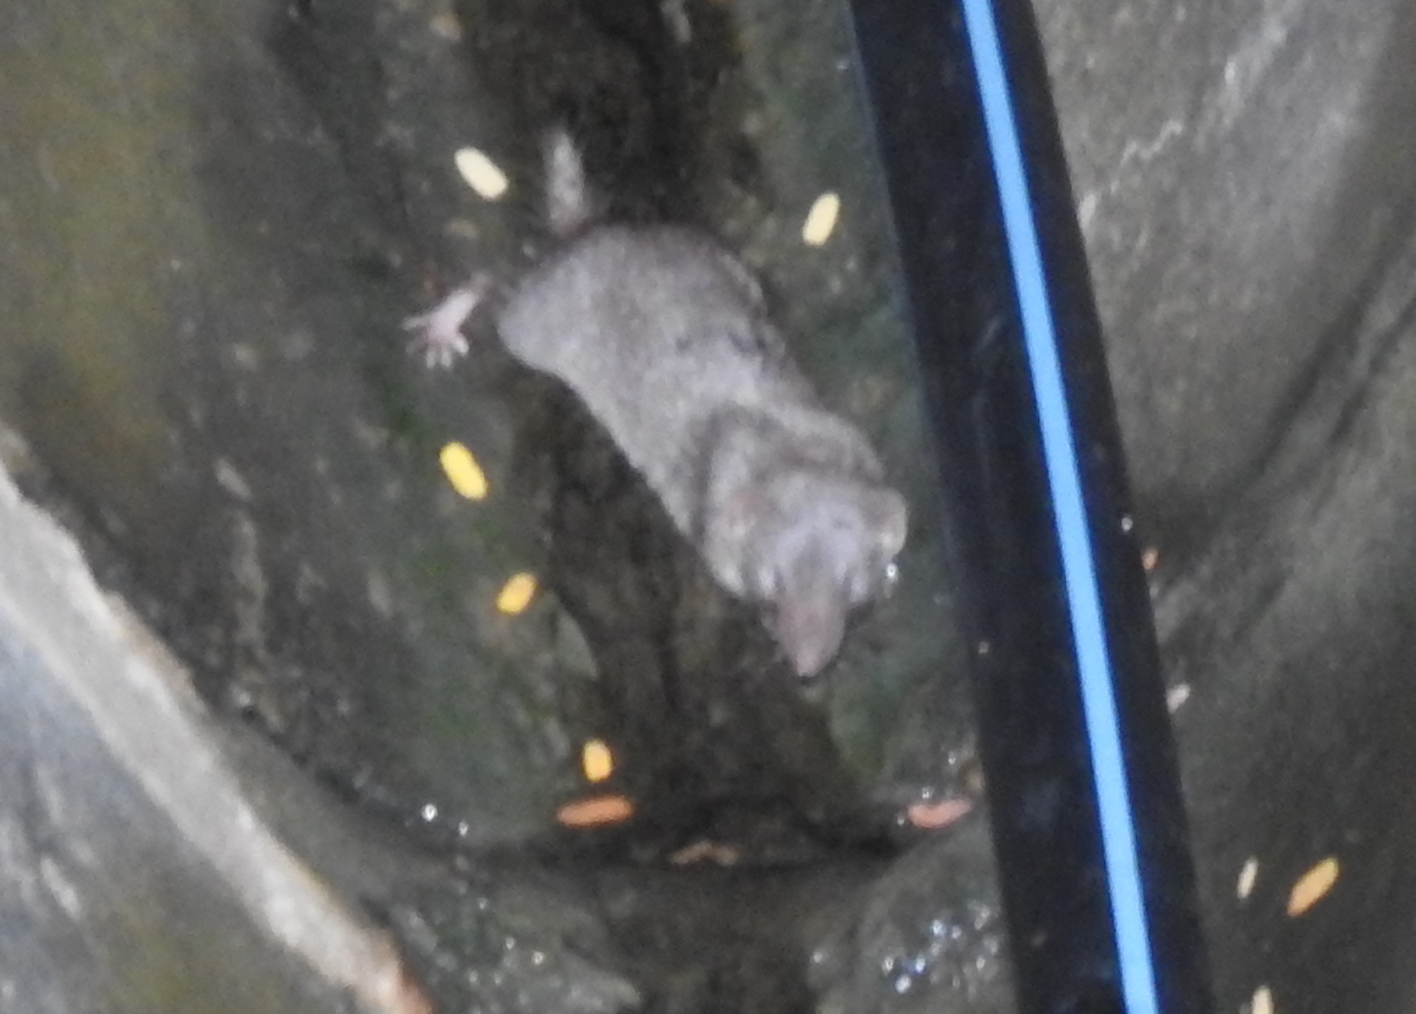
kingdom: Animalia
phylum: Chordata
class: Mammalia
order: Soricomorpha
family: Soricidae
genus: Suncus
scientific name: Suncus murinus
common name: Asian house shrew
